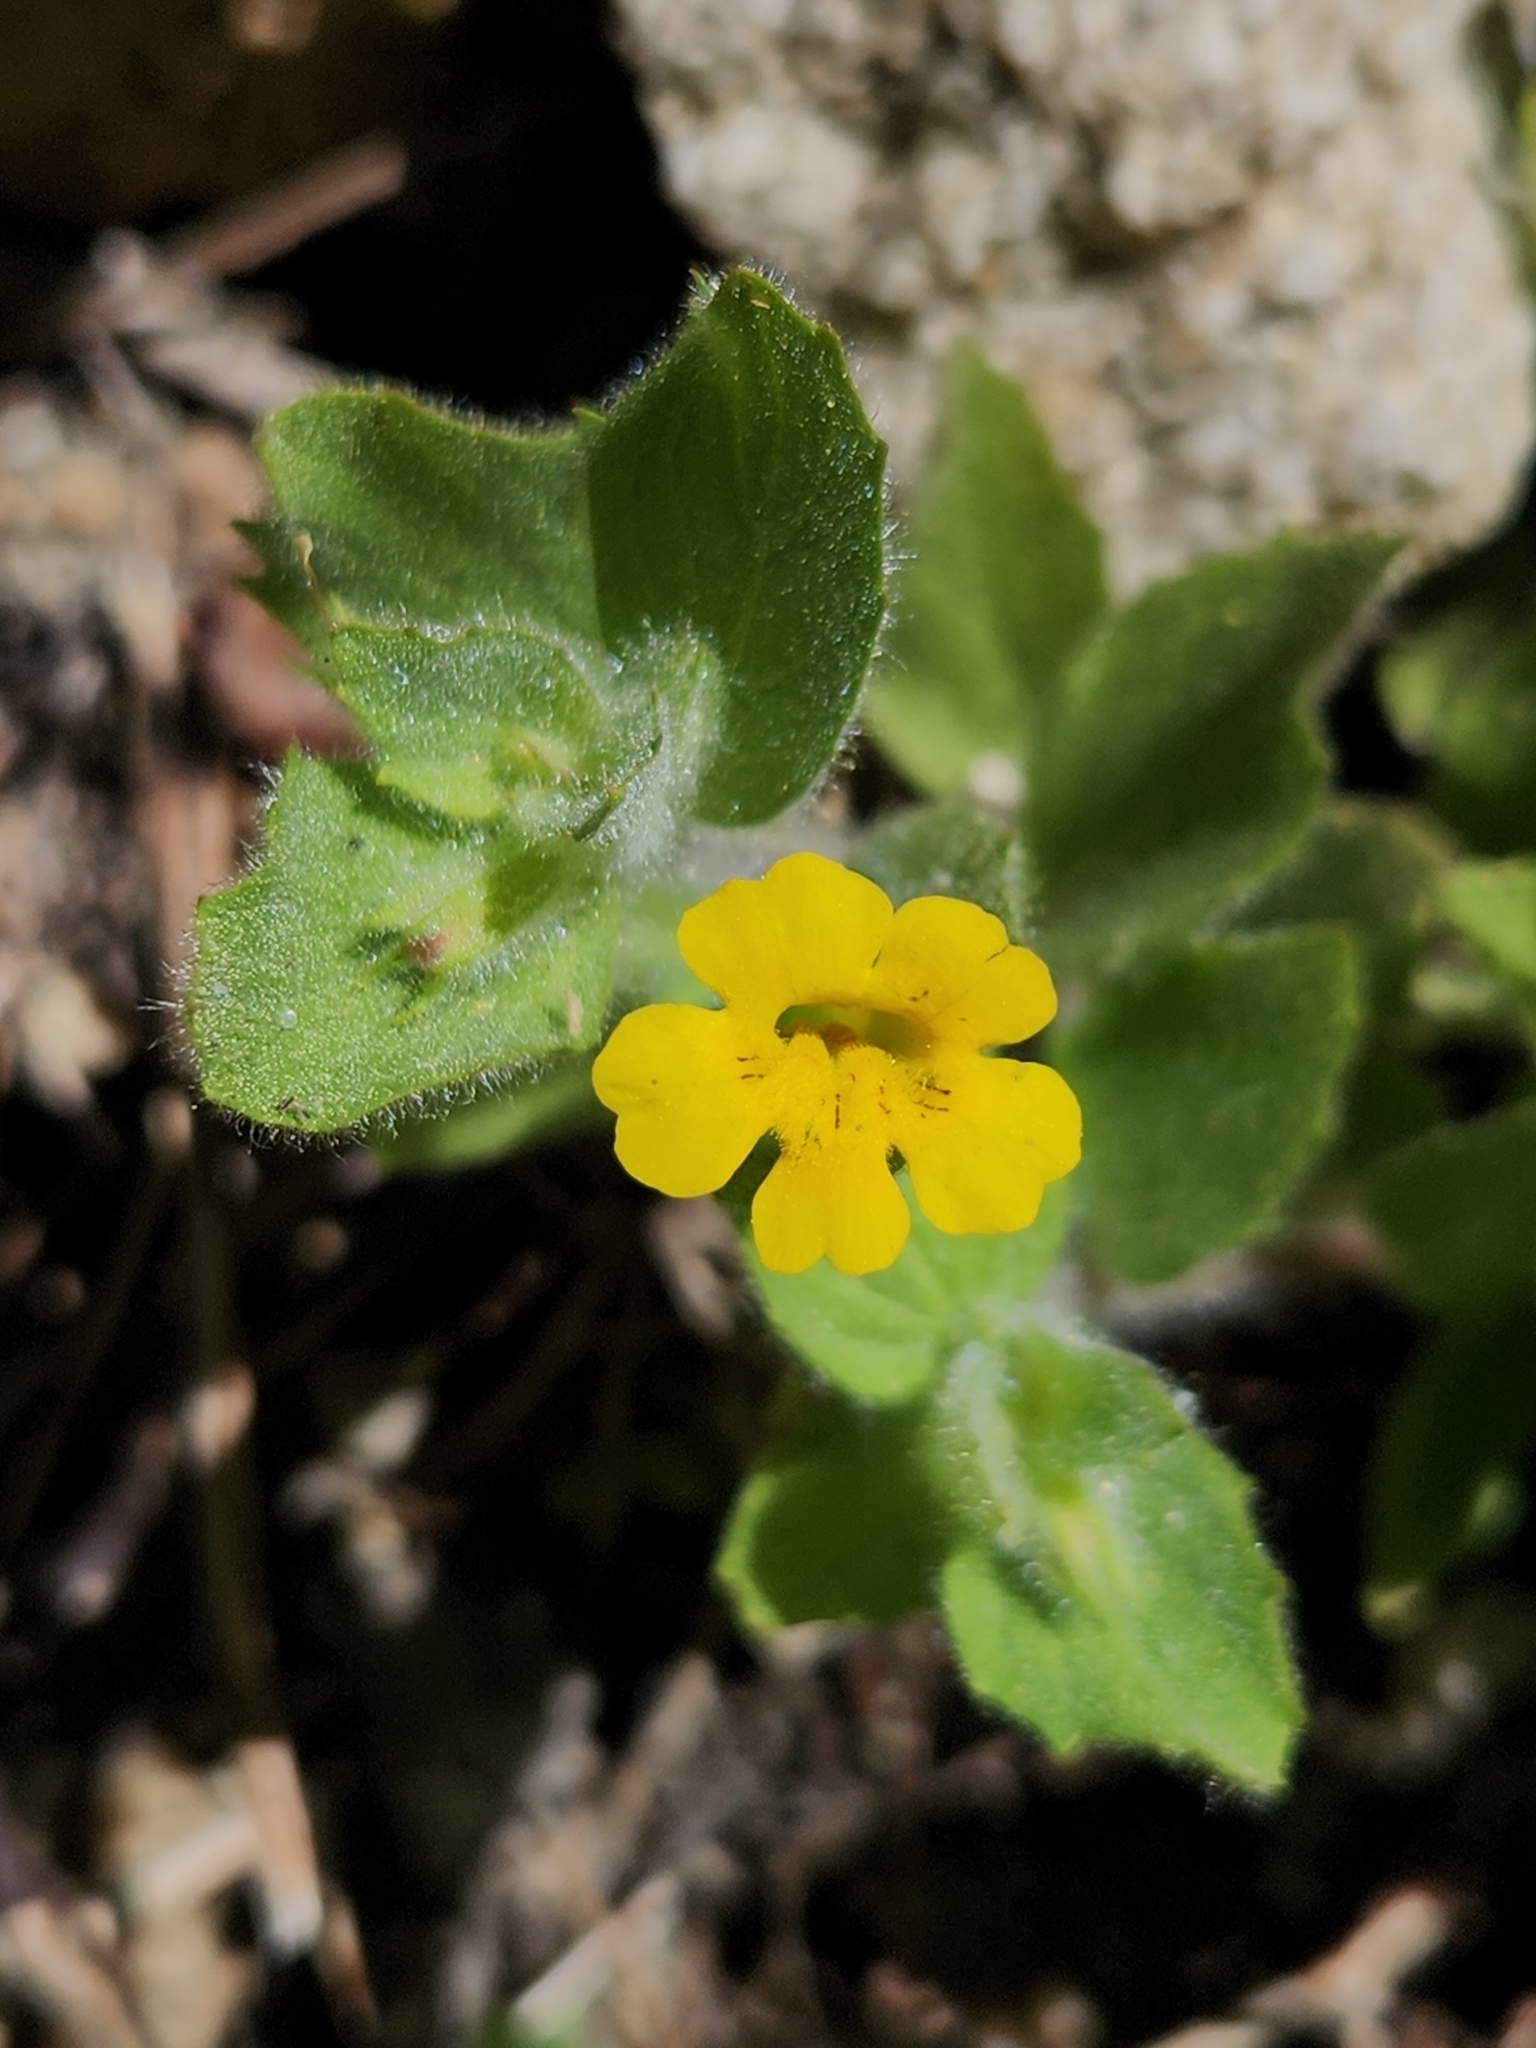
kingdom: Plantae
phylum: Tracheophyta
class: Magnoliopsida
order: Lamiales
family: Phrymaceae
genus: Erythranthe
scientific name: Erythranthe moschata
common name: Muskflower
